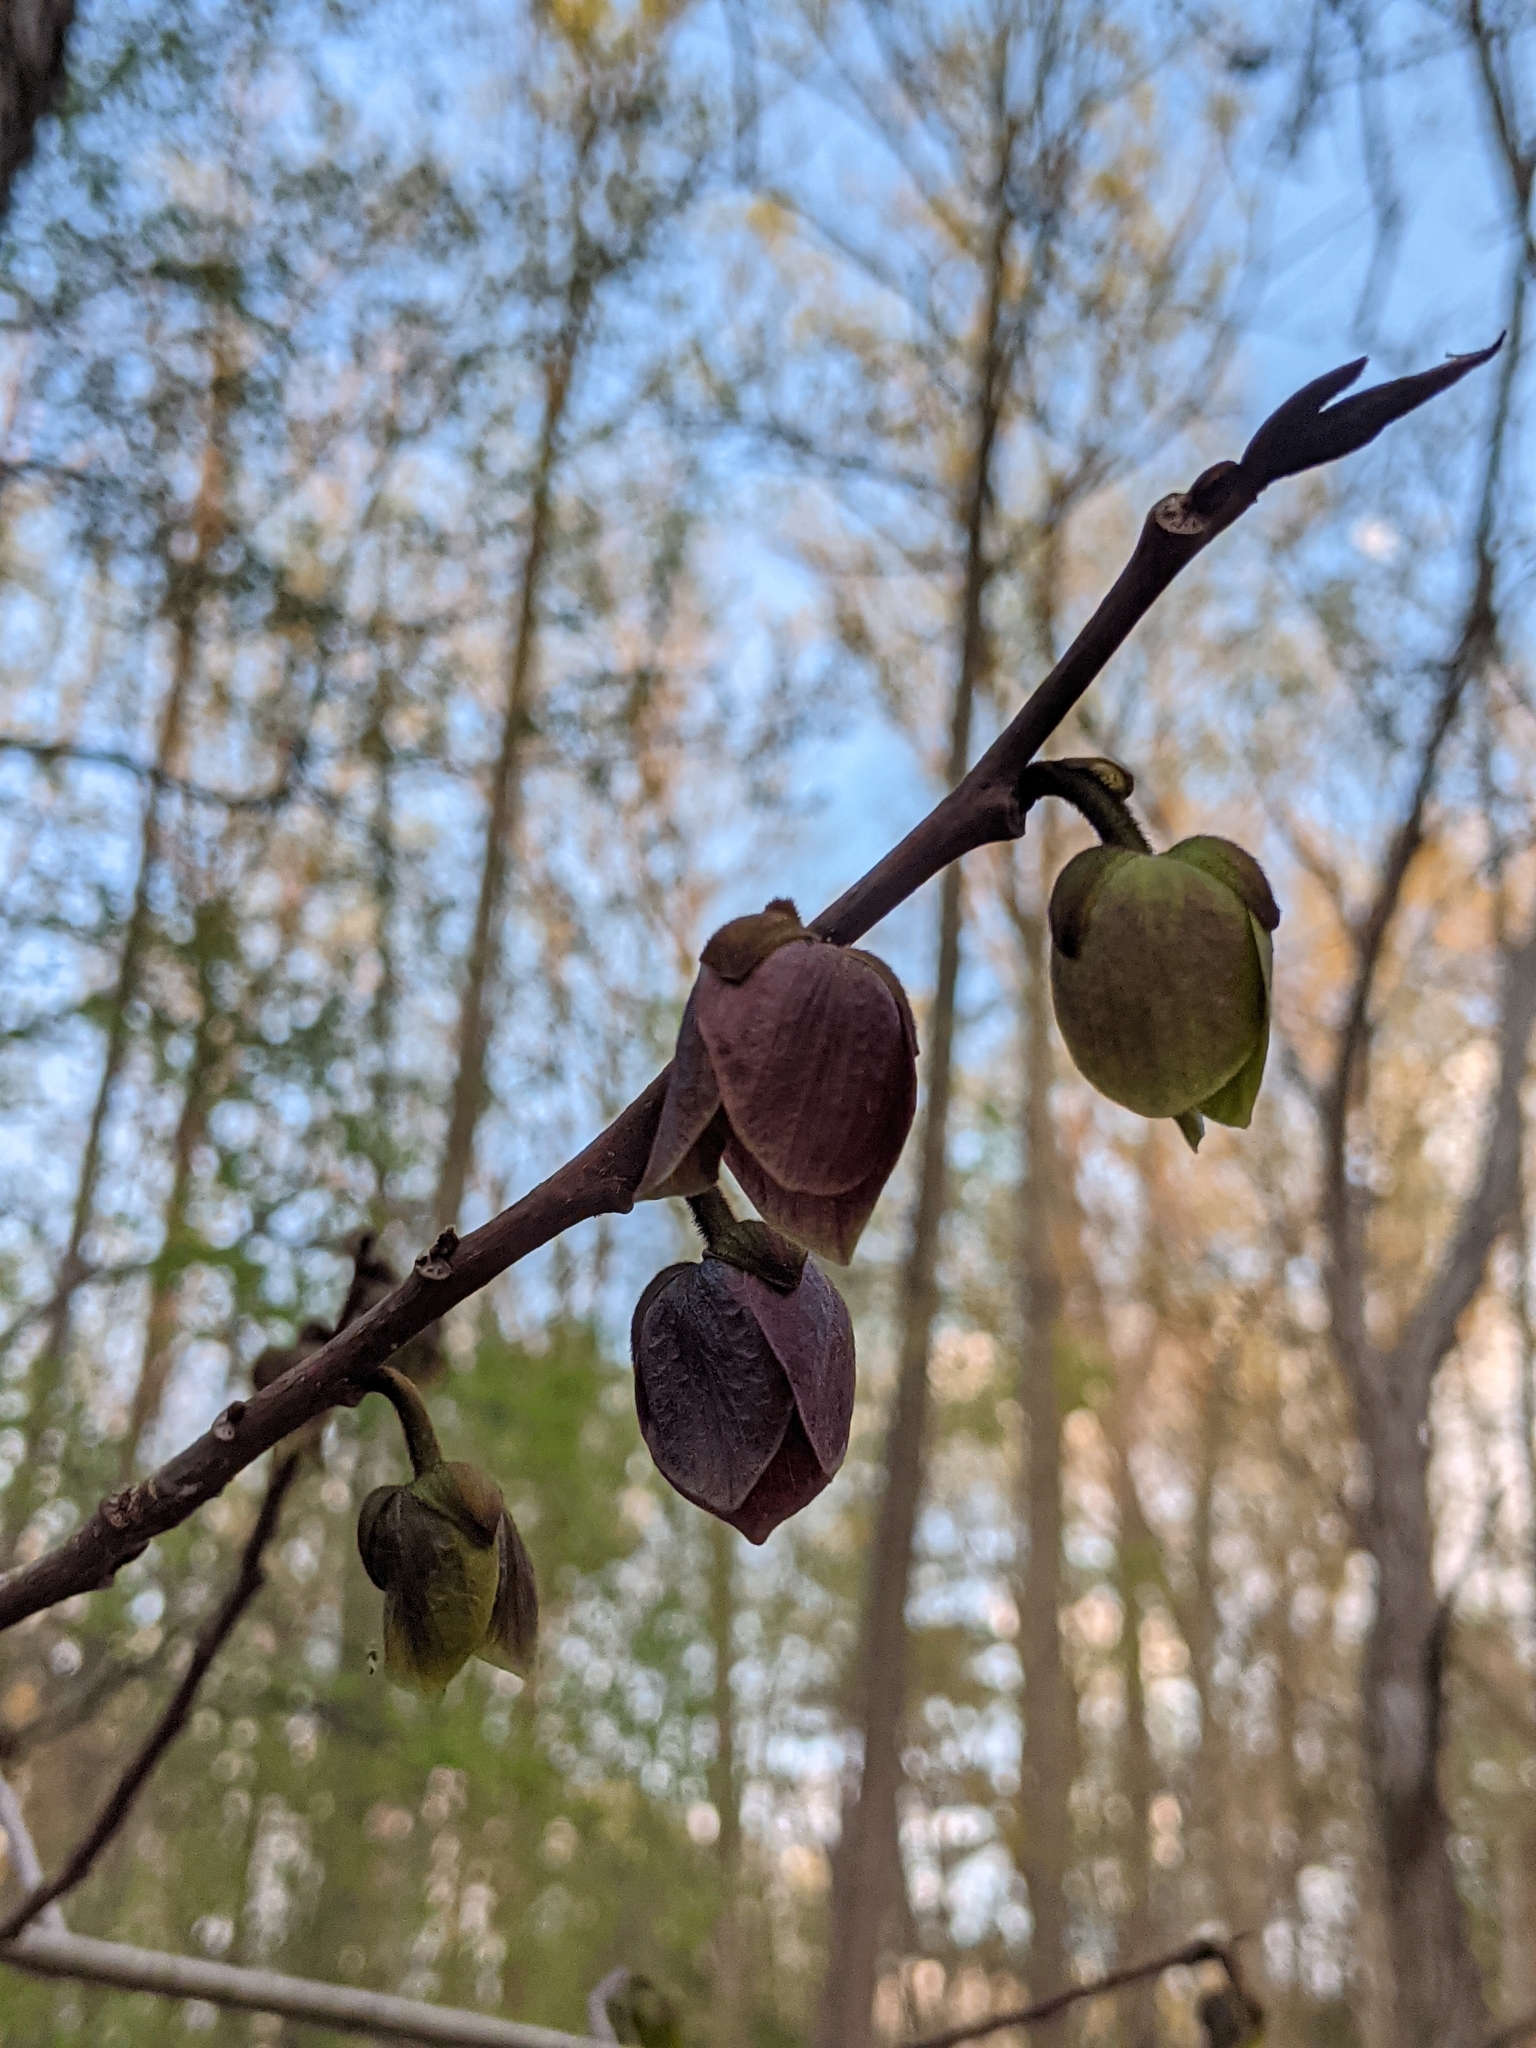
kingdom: Plantae
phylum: Tracheophyta
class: Magnoliopsida
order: Magnoliales
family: Annonaceae
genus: Asimina
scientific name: Asimina triloba
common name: Dog-banana
